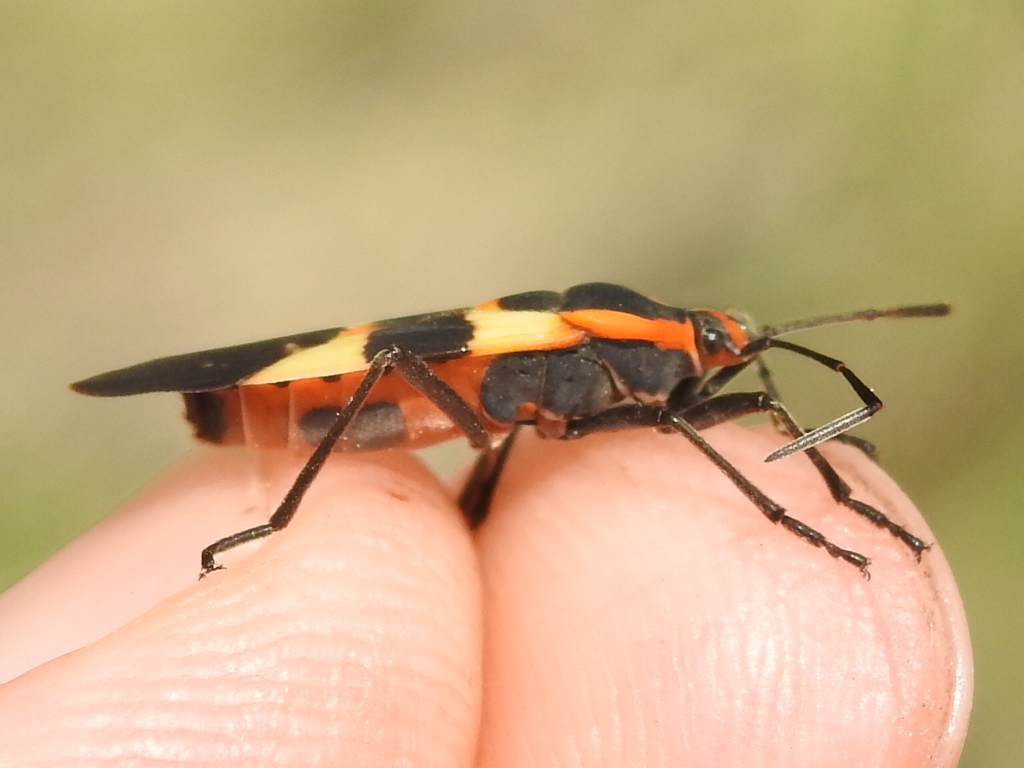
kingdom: Animalia
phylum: Arthropoda
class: Insecta
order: Hemiptera
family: Lygaeidae
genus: Oncopeltus
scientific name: Oncopeltus fasciatus
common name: Large milkweed bug
